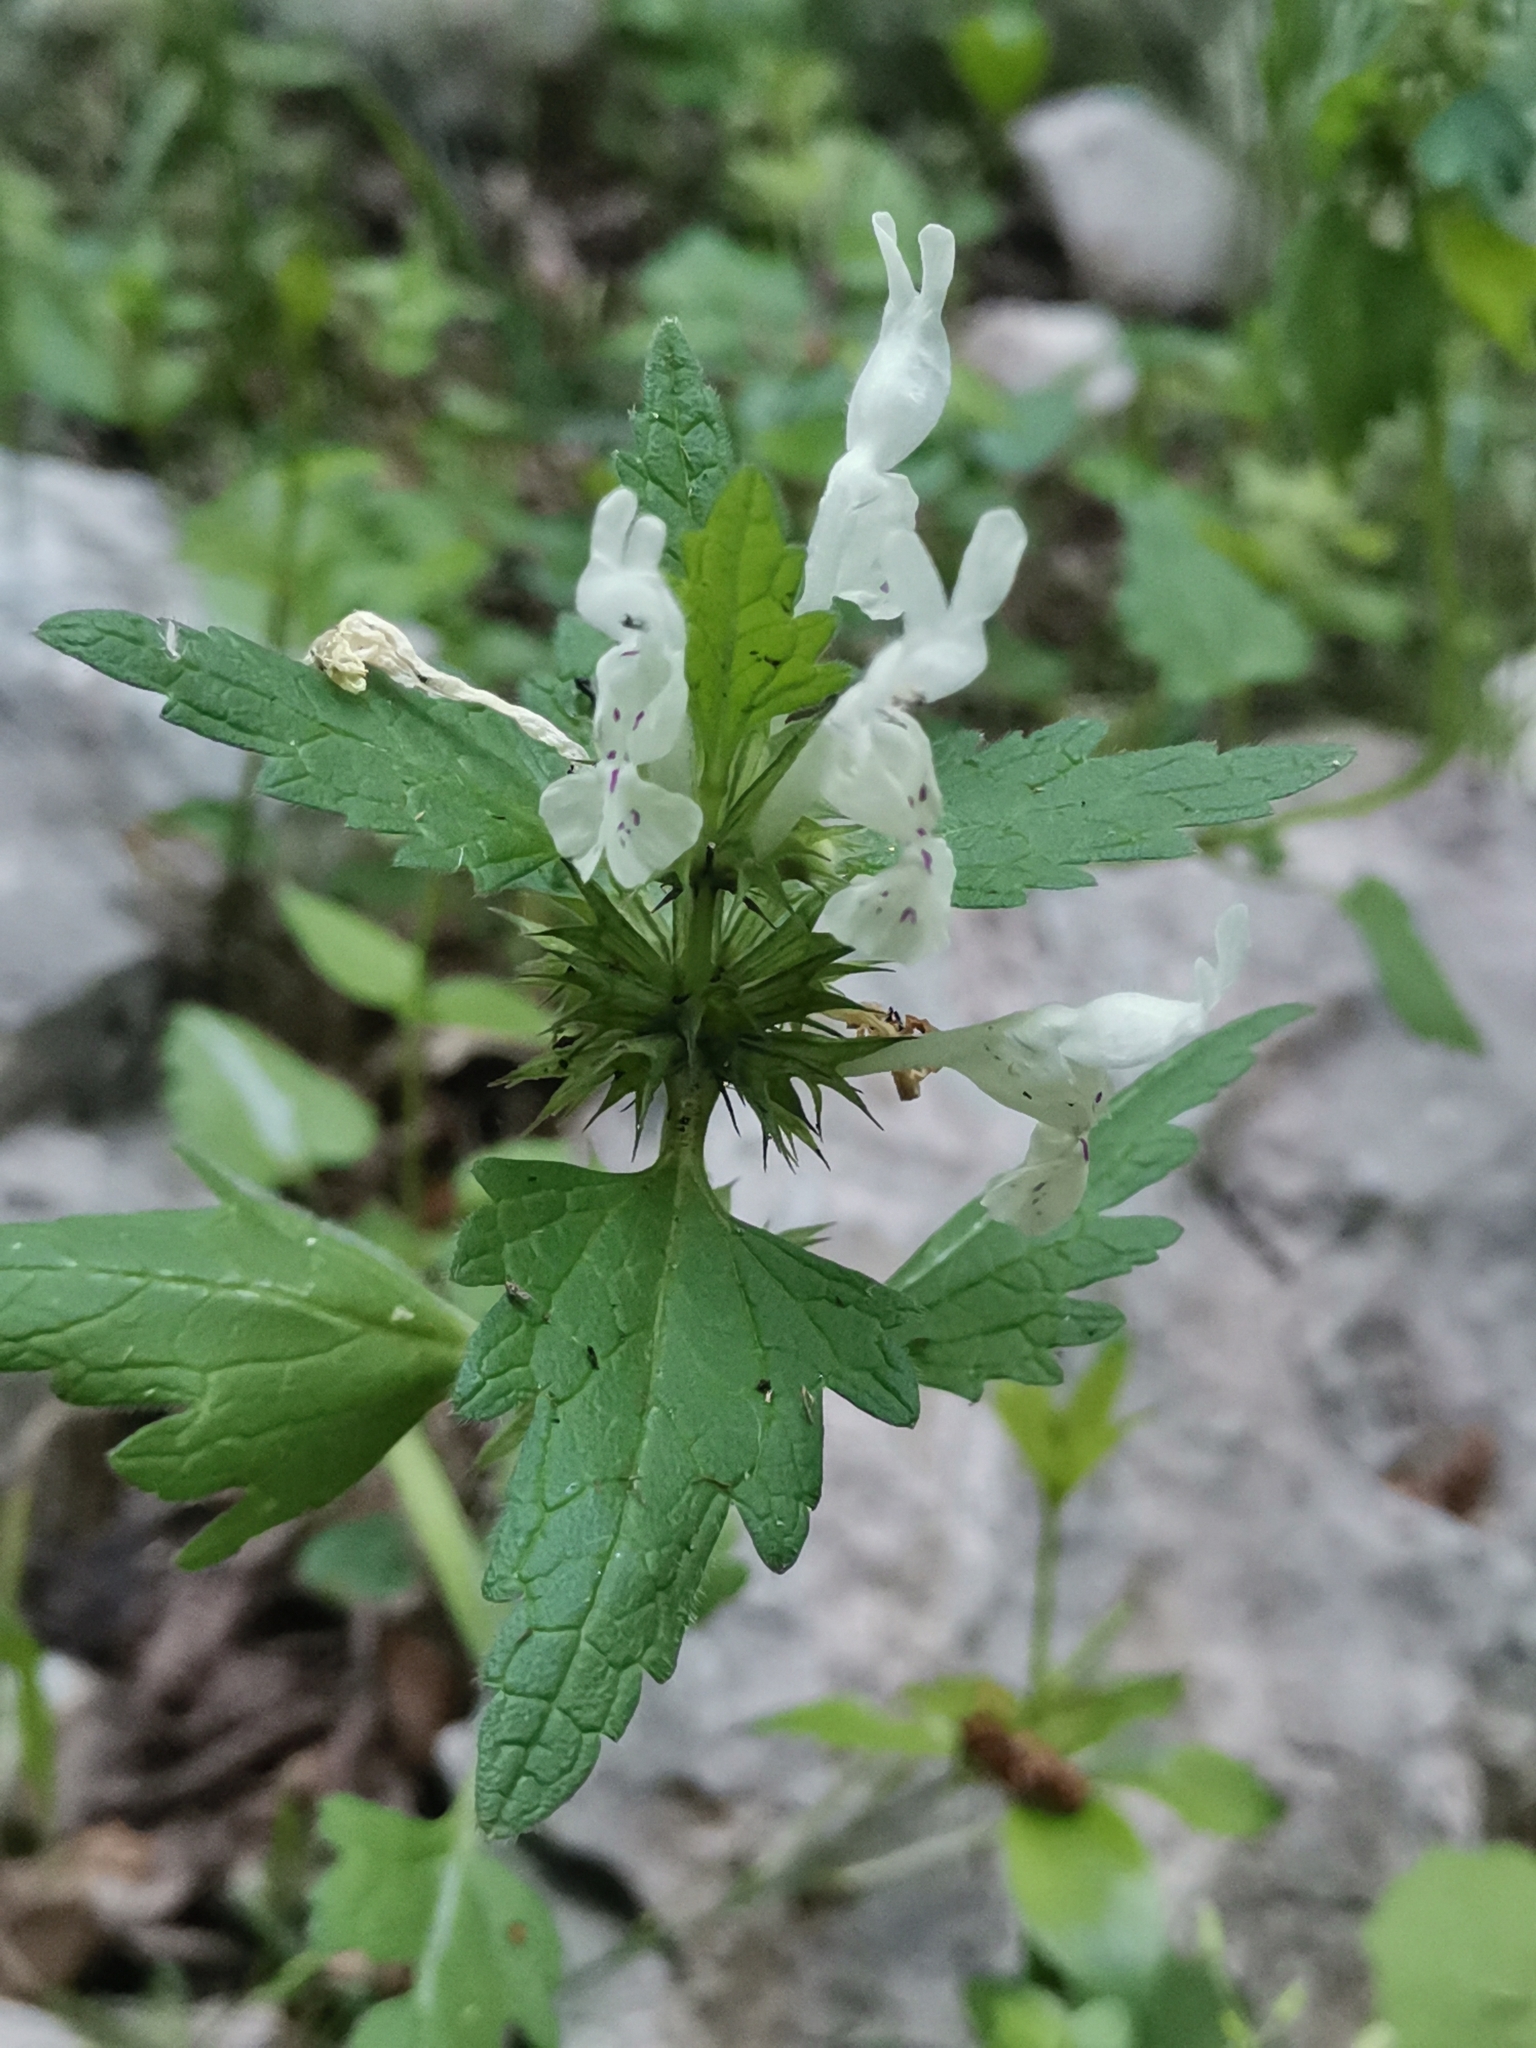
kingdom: Plantae
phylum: Tracheophyta
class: Magnoliopsida
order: Lamiales
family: Lamiaceae
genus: Lamium
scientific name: Lamium bifidum
